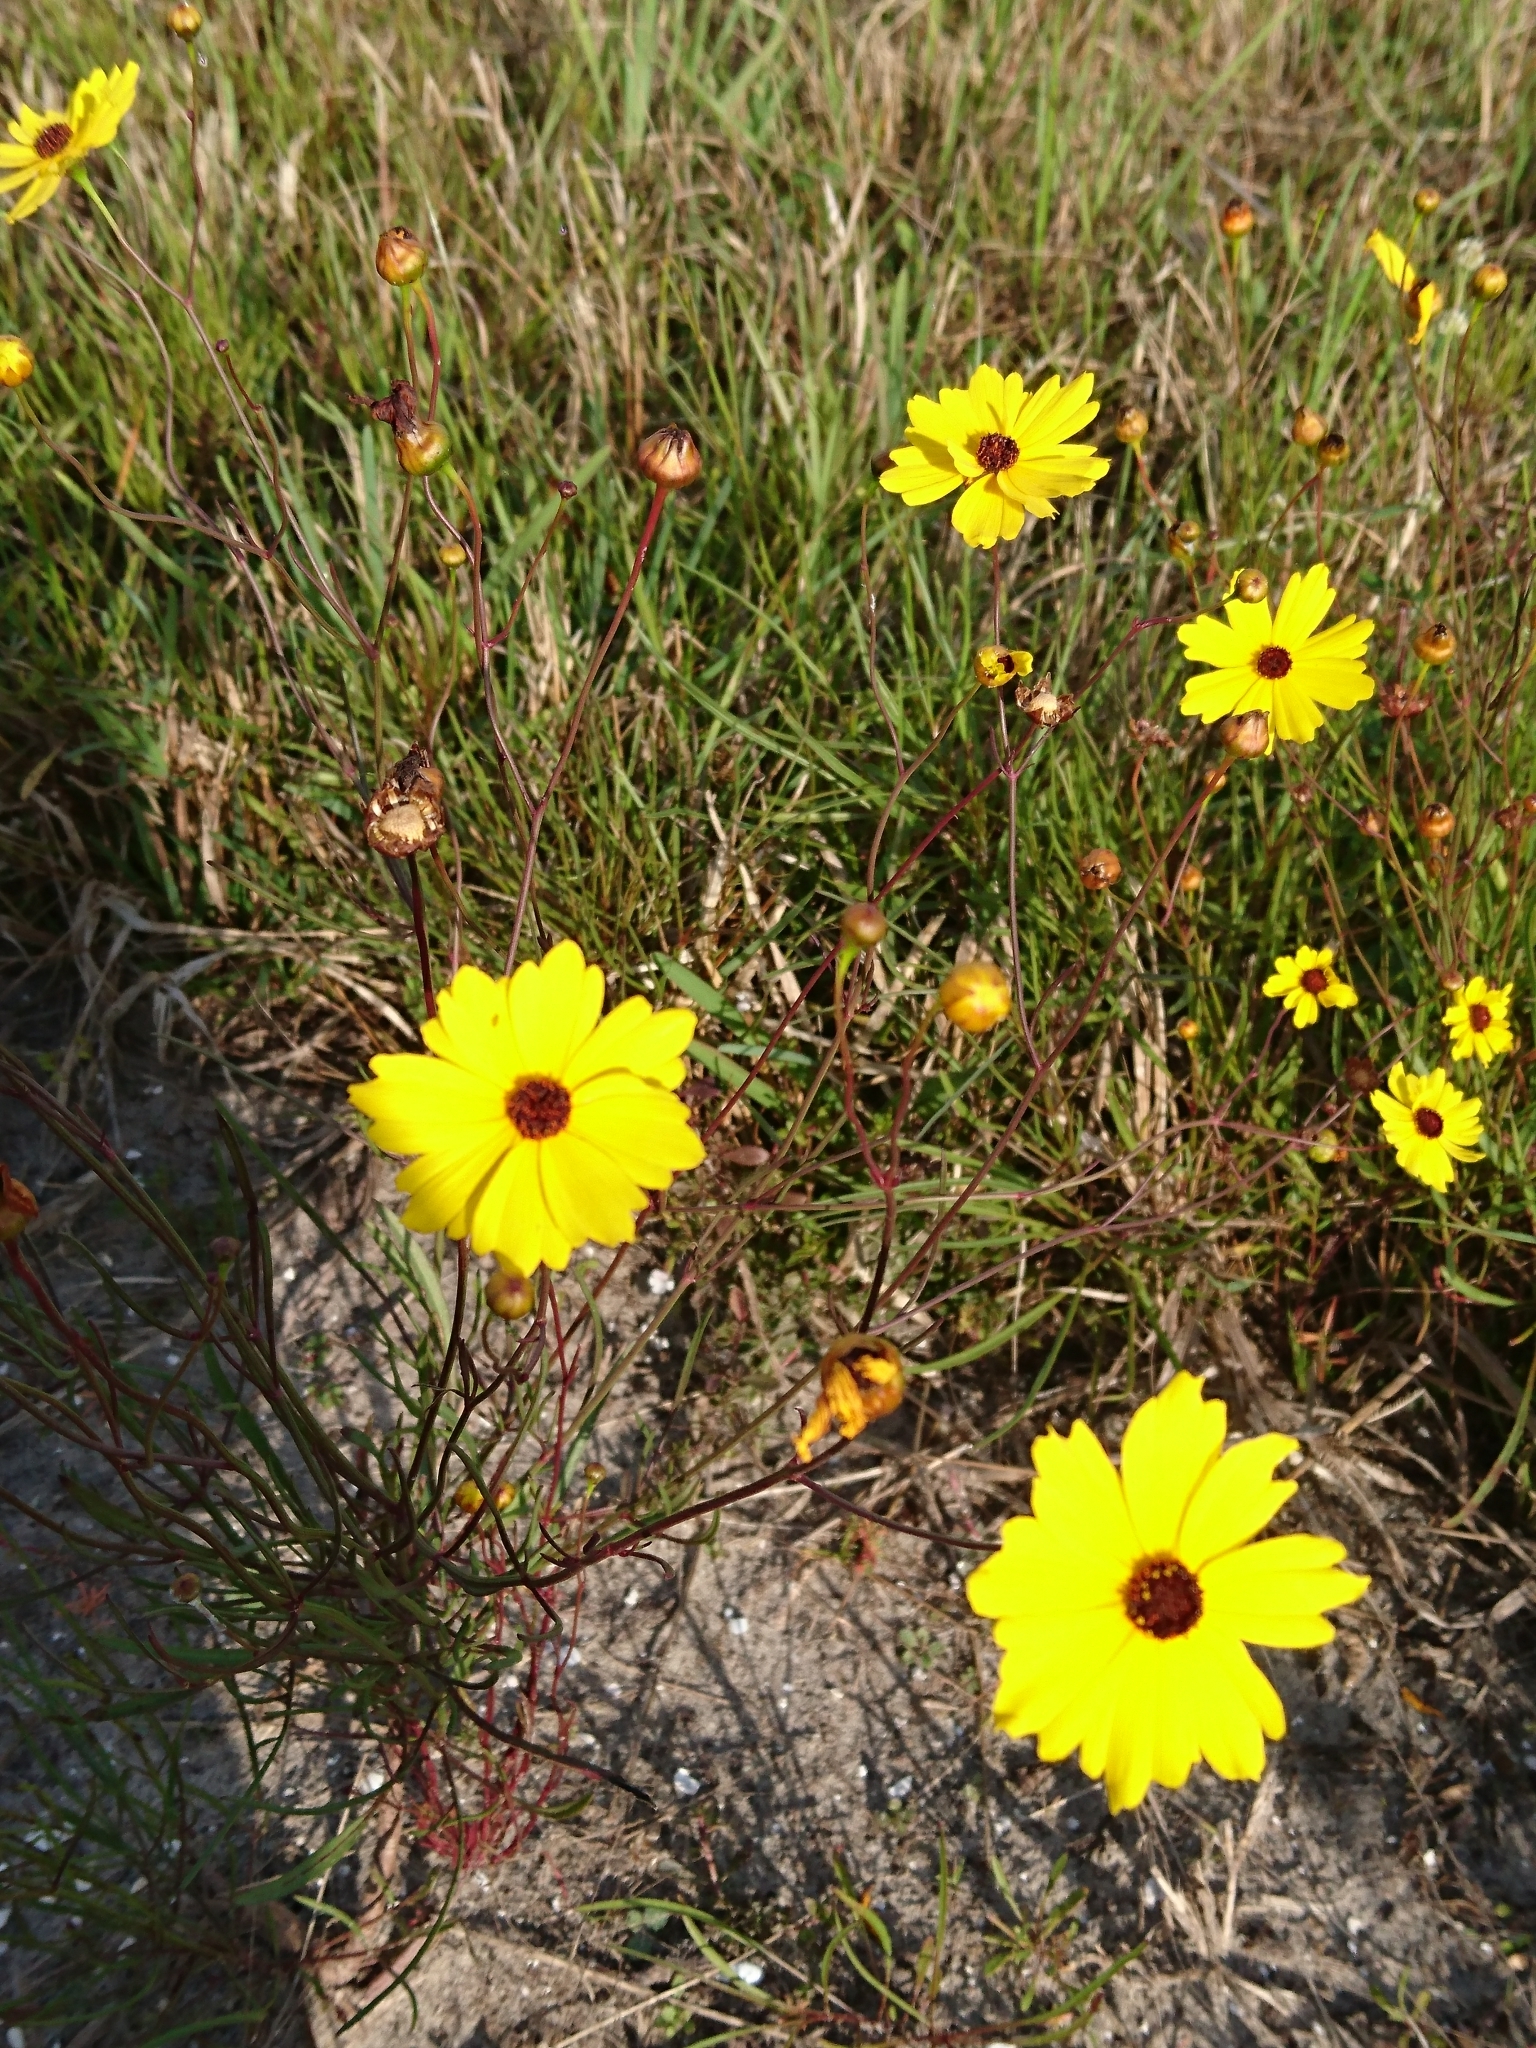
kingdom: Plantae
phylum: Tracheophyta
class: Magnoliopsida
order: Asterales
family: Asteraceae
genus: Coreopsis
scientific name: Coreopsis leavenworthii
